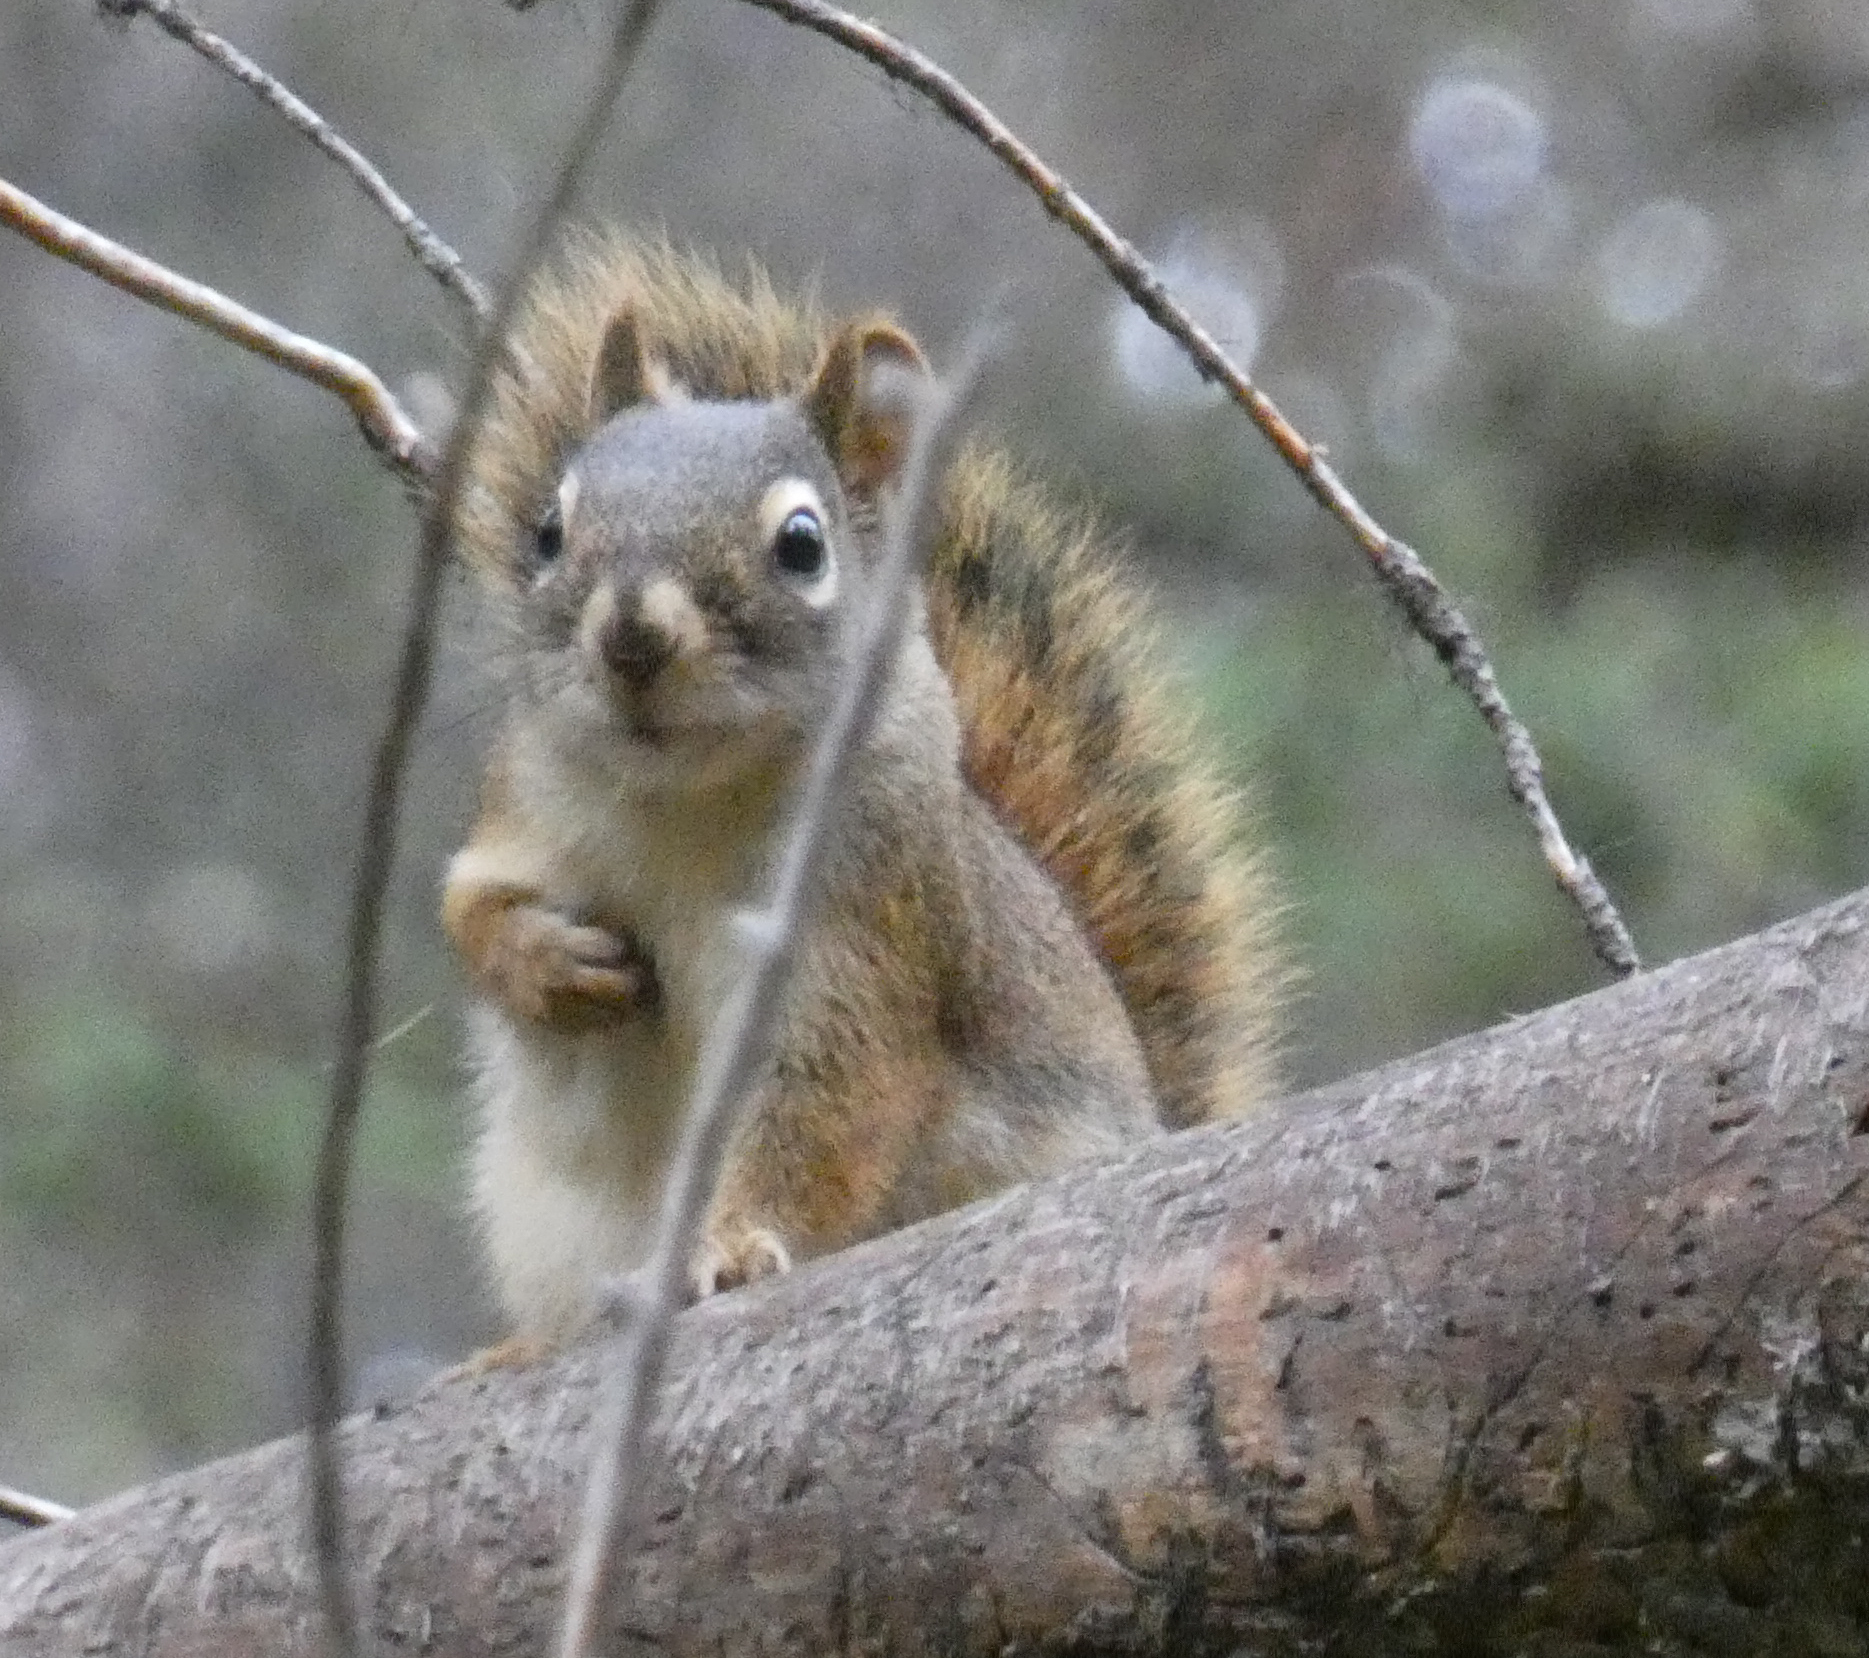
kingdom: Animalia
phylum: Chordata
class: Mammalia
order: Rodentia
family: Sciuridae
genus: Tamiasciurus
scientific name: Tamiasciurus hudsonicus
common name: Red squirrel
